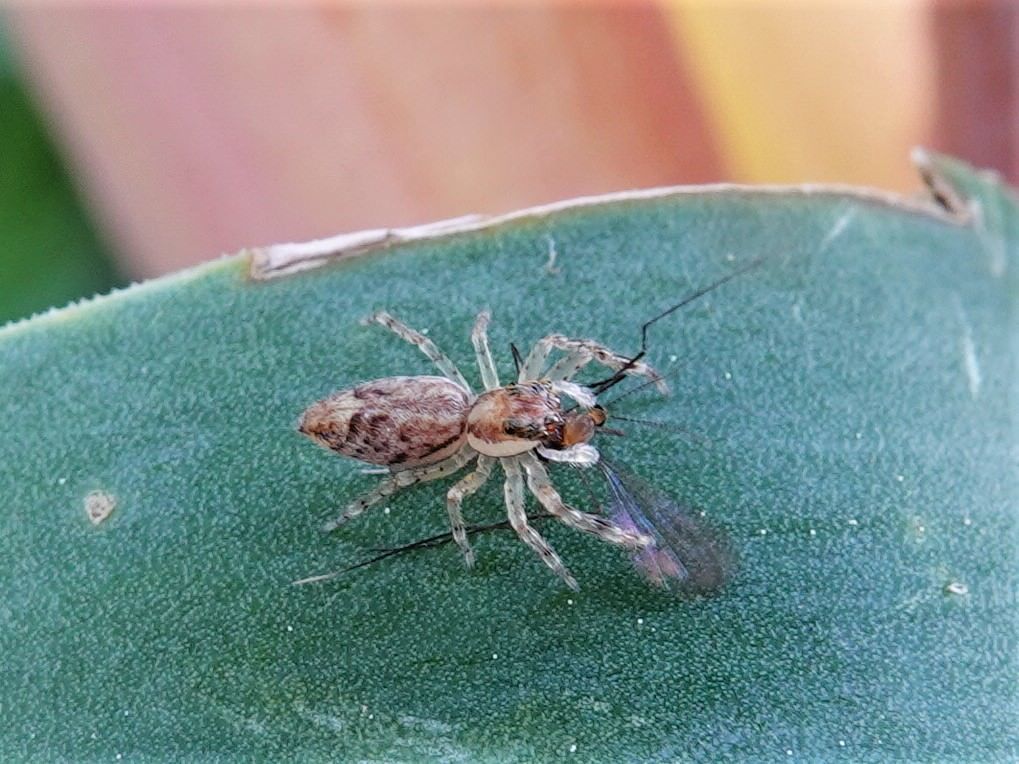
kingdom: Animalia
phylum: Arthropoda
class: Arachnida
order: Araneae
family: Salticidae
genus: Helpis
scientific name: Helpis minitabunda
